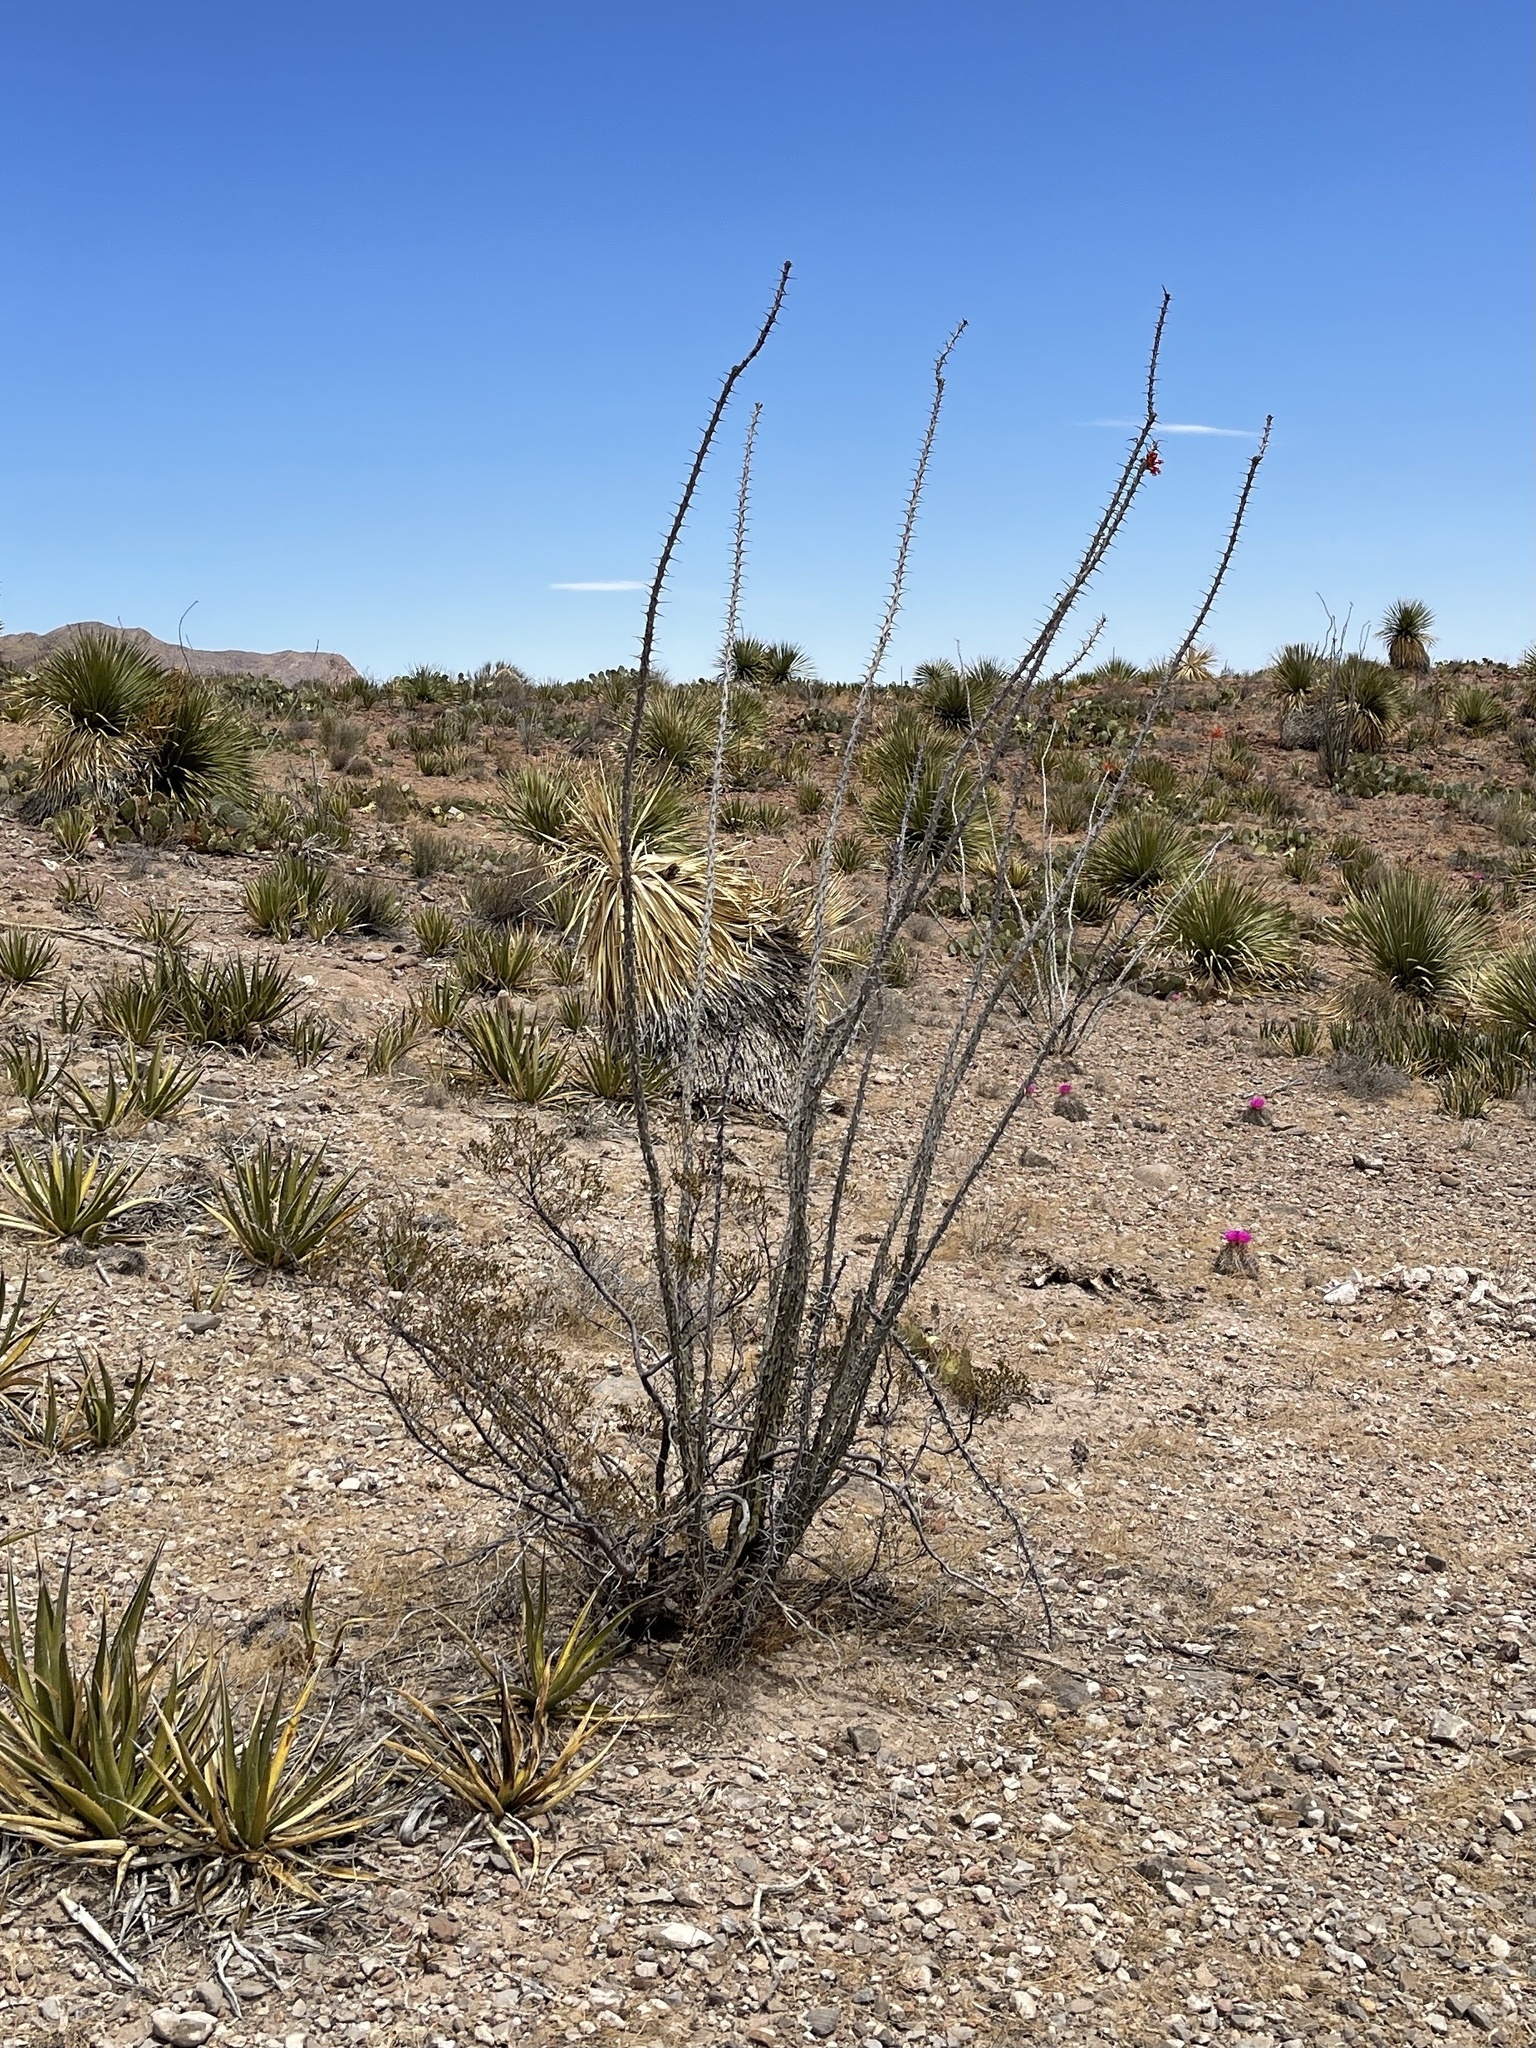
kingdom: Plantae
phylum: Tracheophyta
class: Magnoliopsida
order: Ericales
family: Fouquieriaceae
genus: Fouquieria
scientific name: Fouquieria splendens
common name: Vine-cactus
